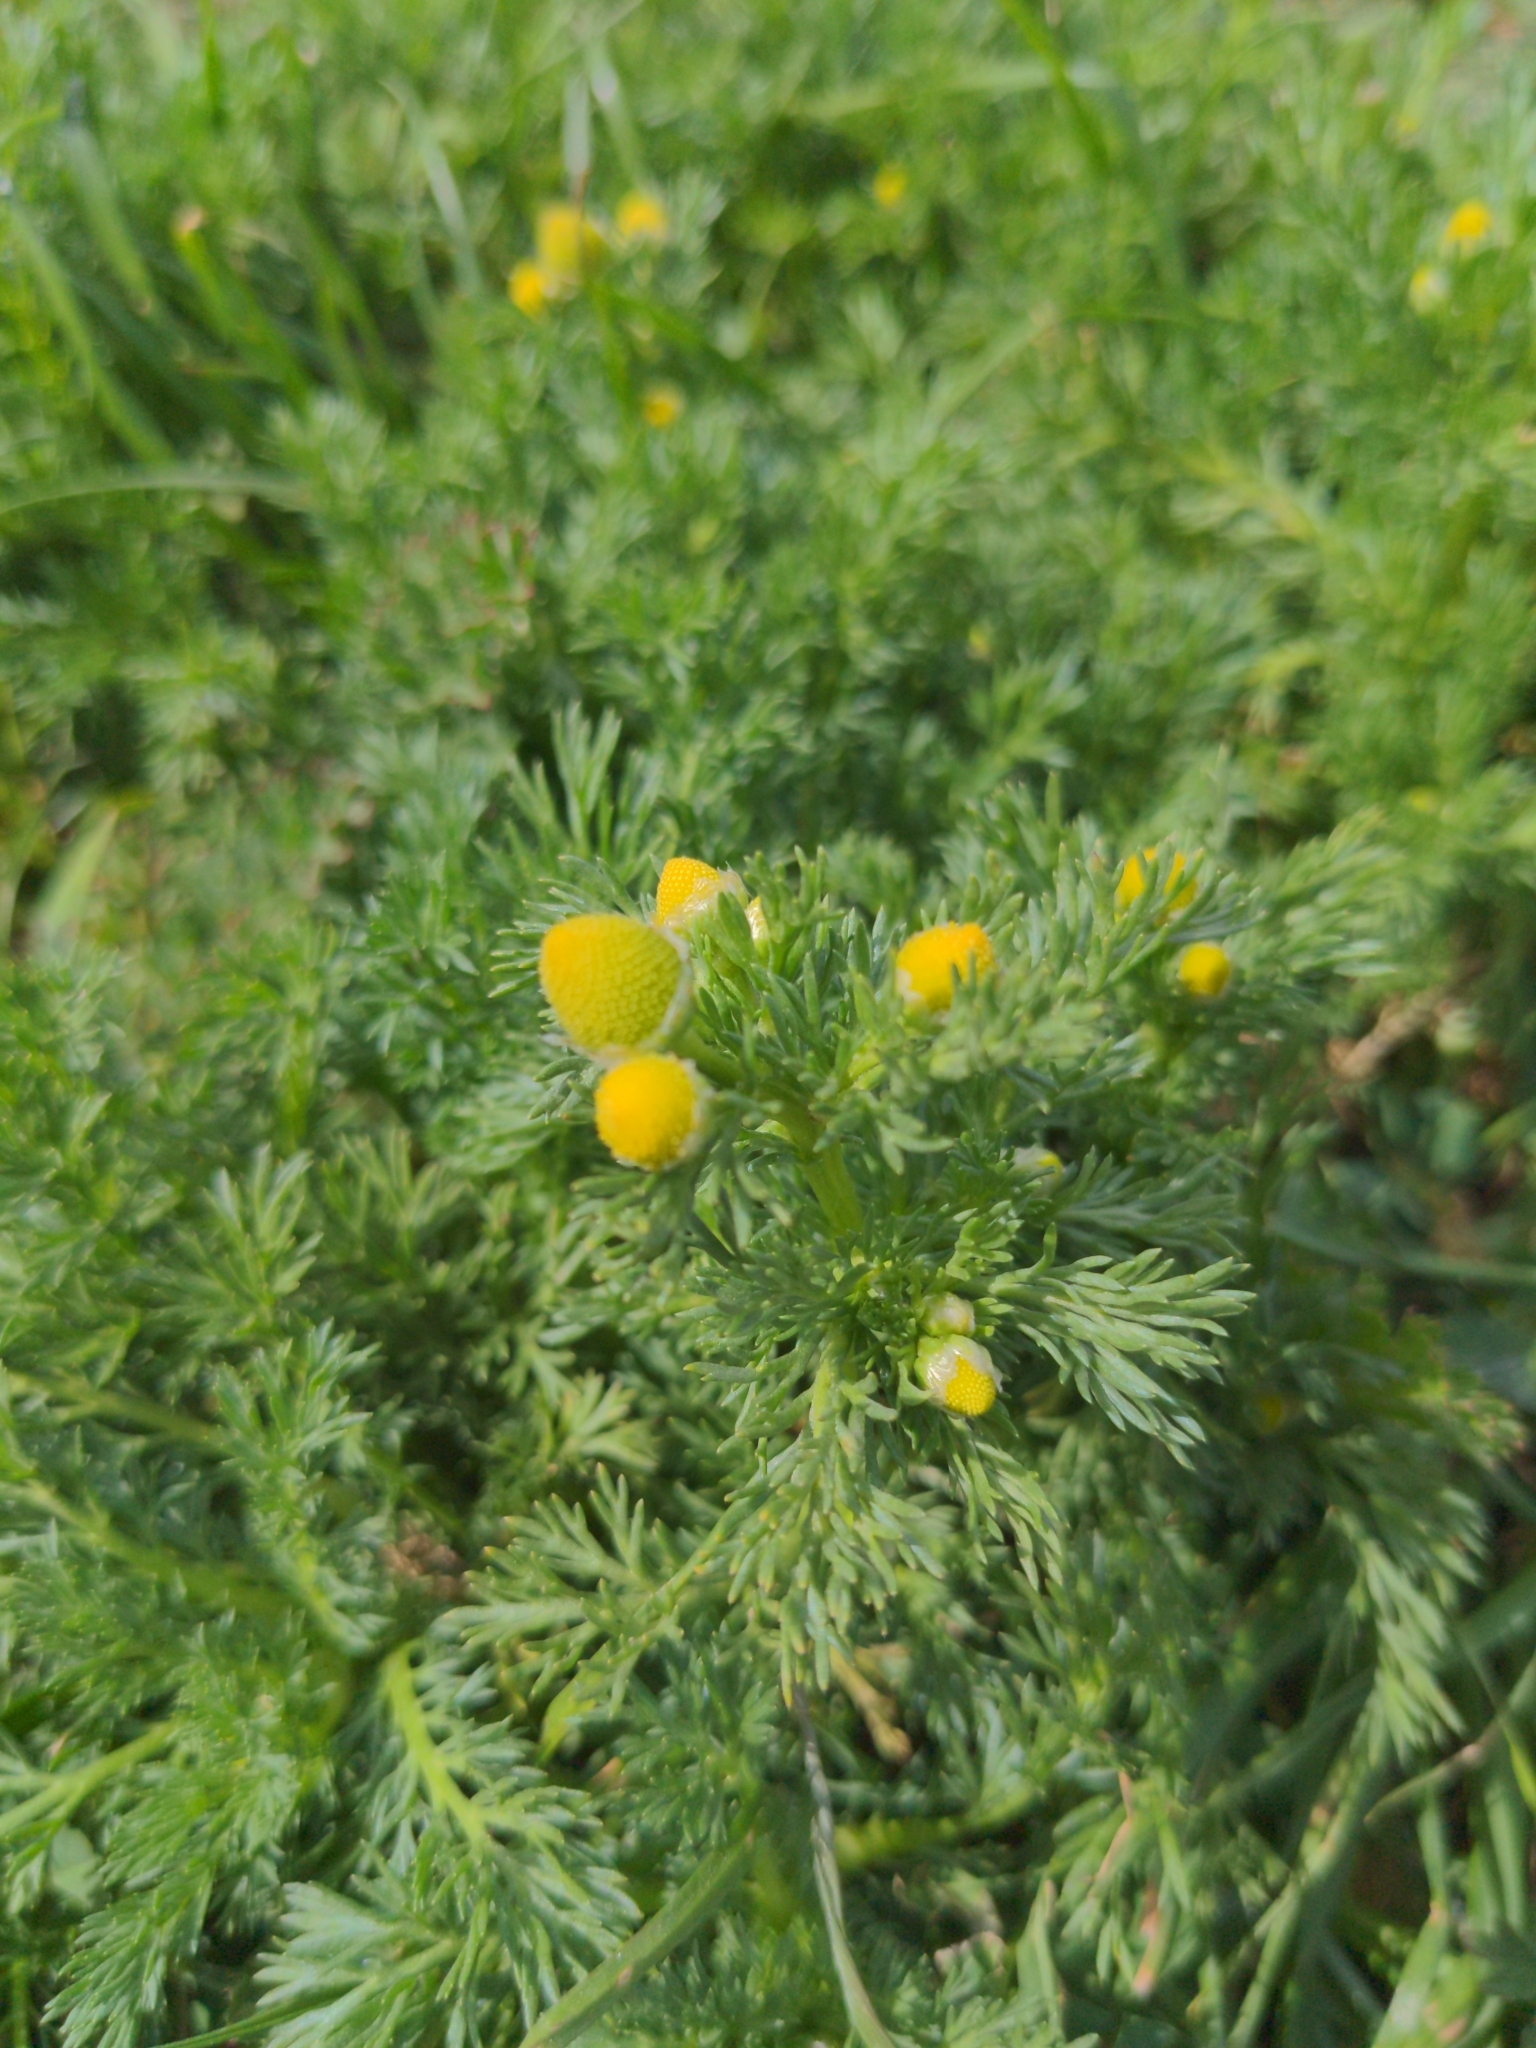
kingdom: Plantae
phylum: Tracheophyta
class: Magnoliopsida
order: Asterales
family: Asteraceae
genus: Matricaria
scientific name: Matricaria discoidea
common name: Disc mayweed
